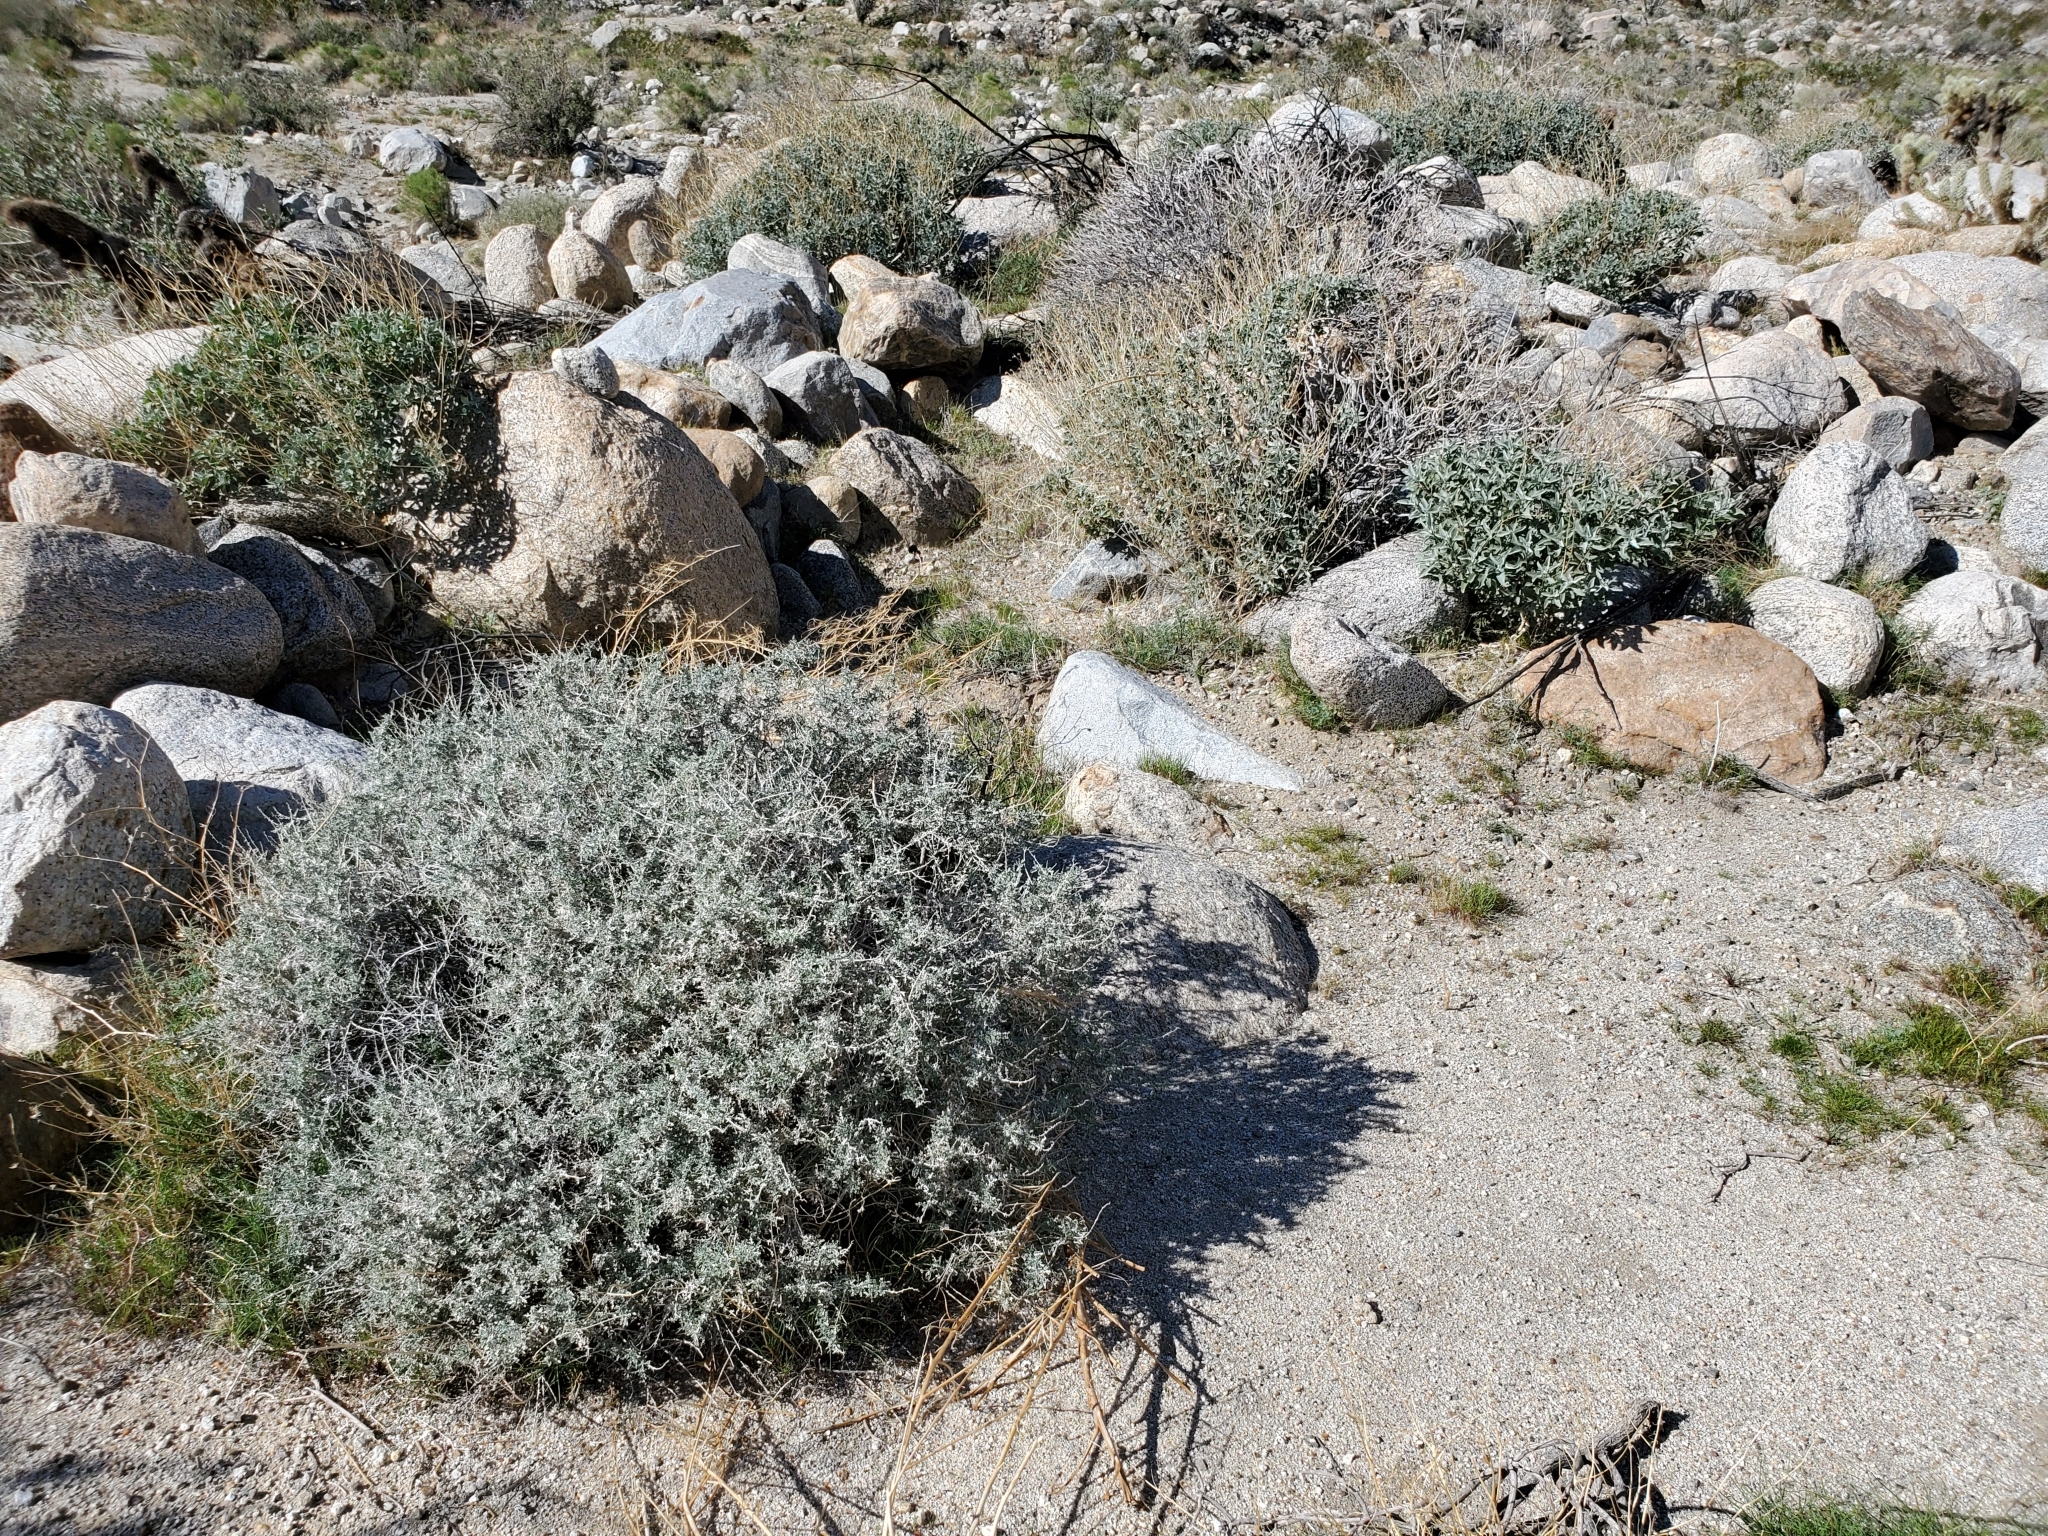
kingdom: Plantae
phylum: Tracheophyta
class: Magnoliopsida
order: Asterales
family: Asteraceae
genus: Ambrosia
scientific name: Ambrosia dumosa
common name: Bur-sage
